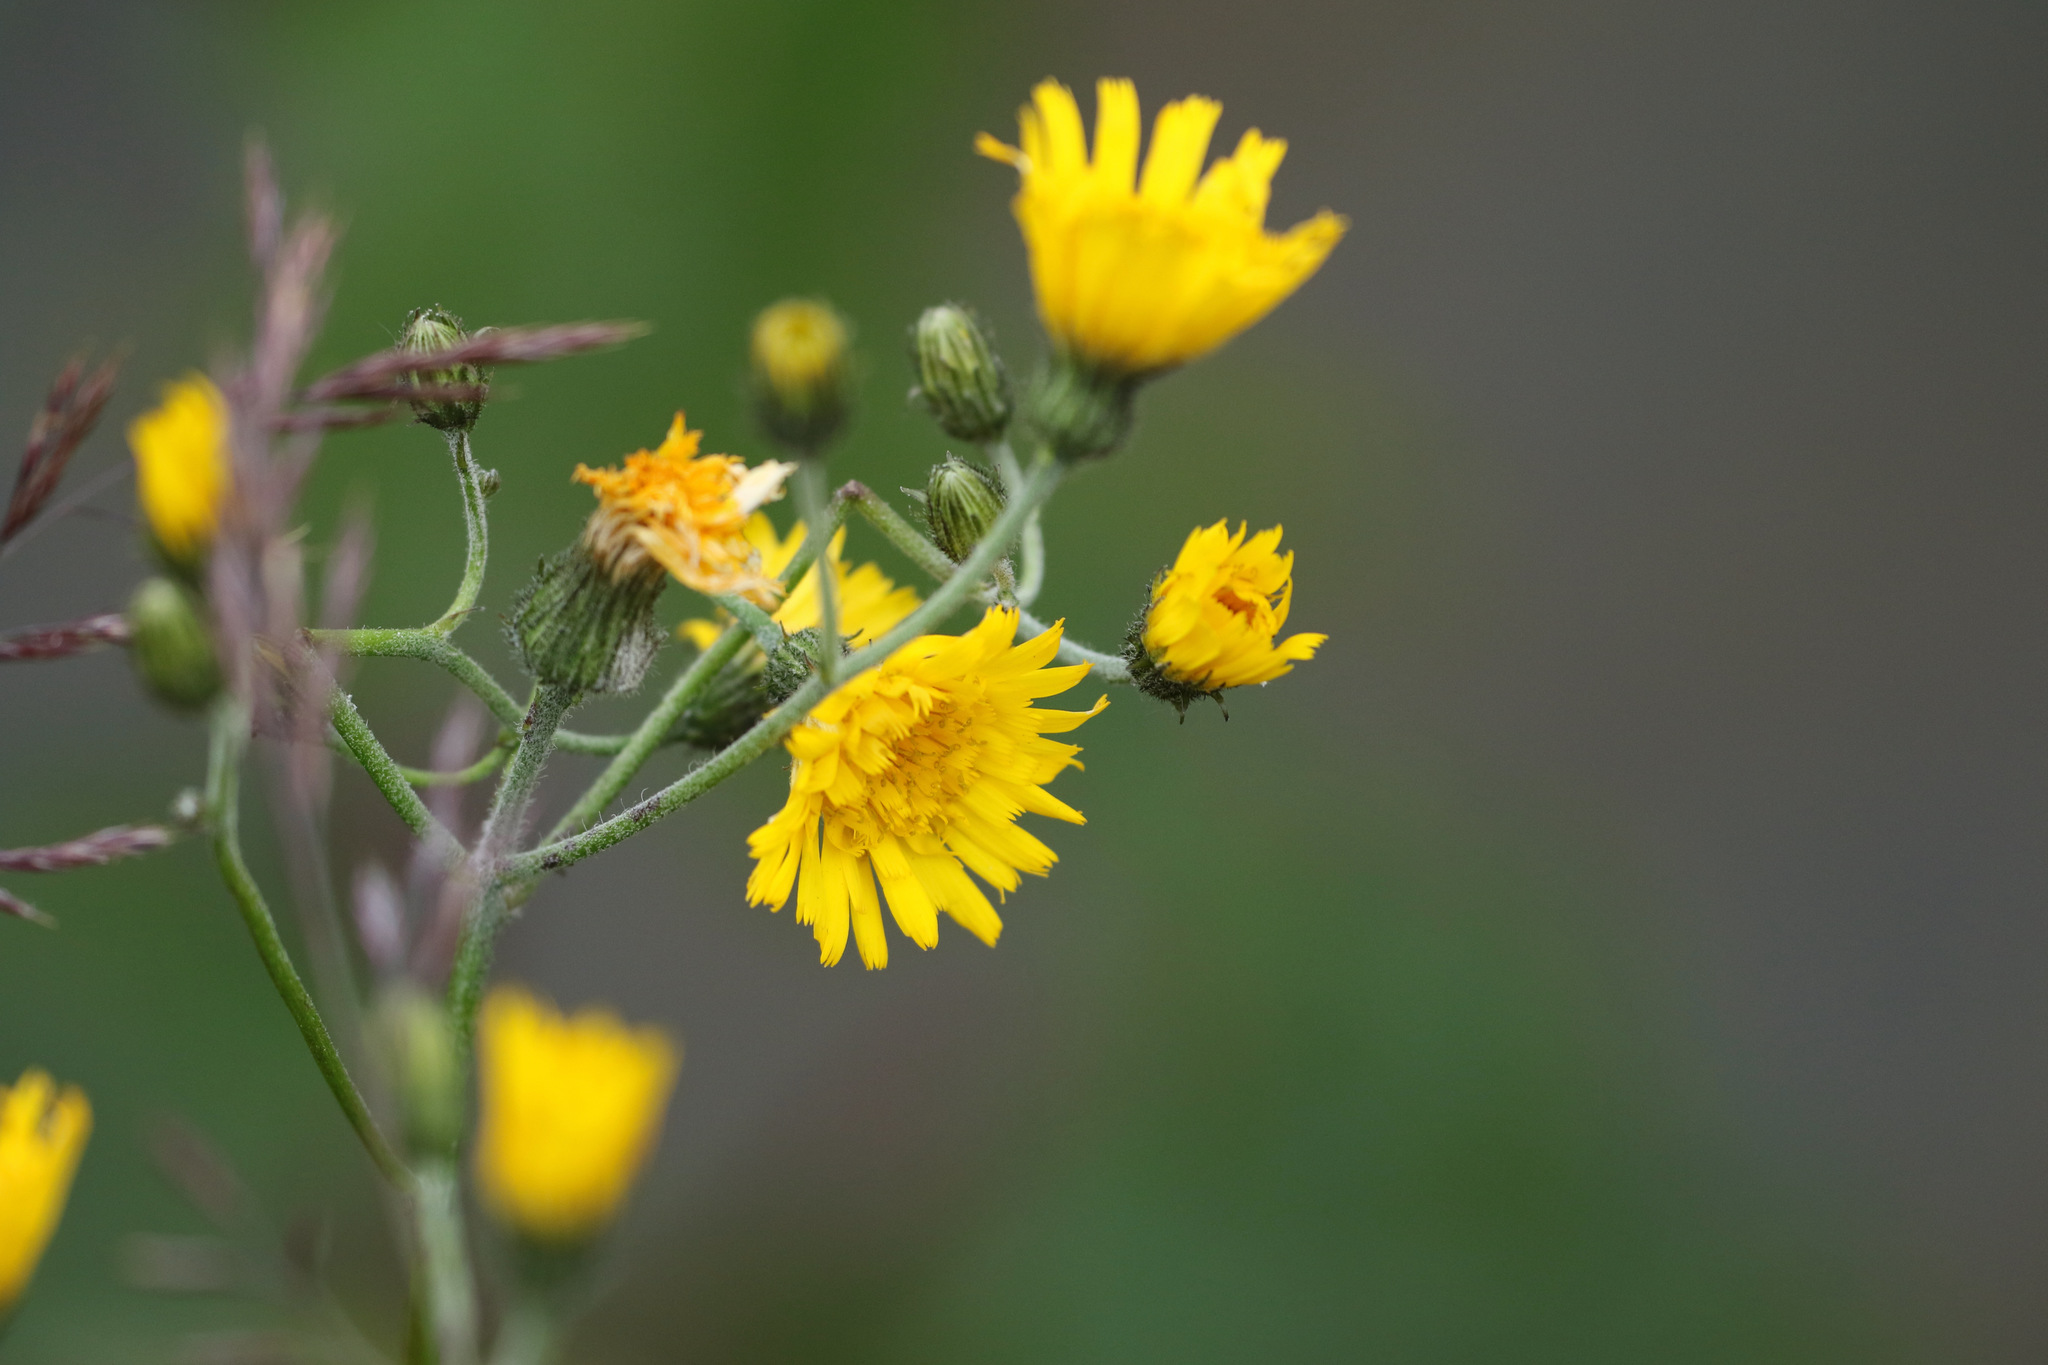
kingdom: Plantae
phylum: Tracheophyta
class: Magnoliopsida
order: Asterales
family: Asteraceae
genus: Sonchus
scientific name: Sonchus arvensis
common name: Perennial sow-thistle
